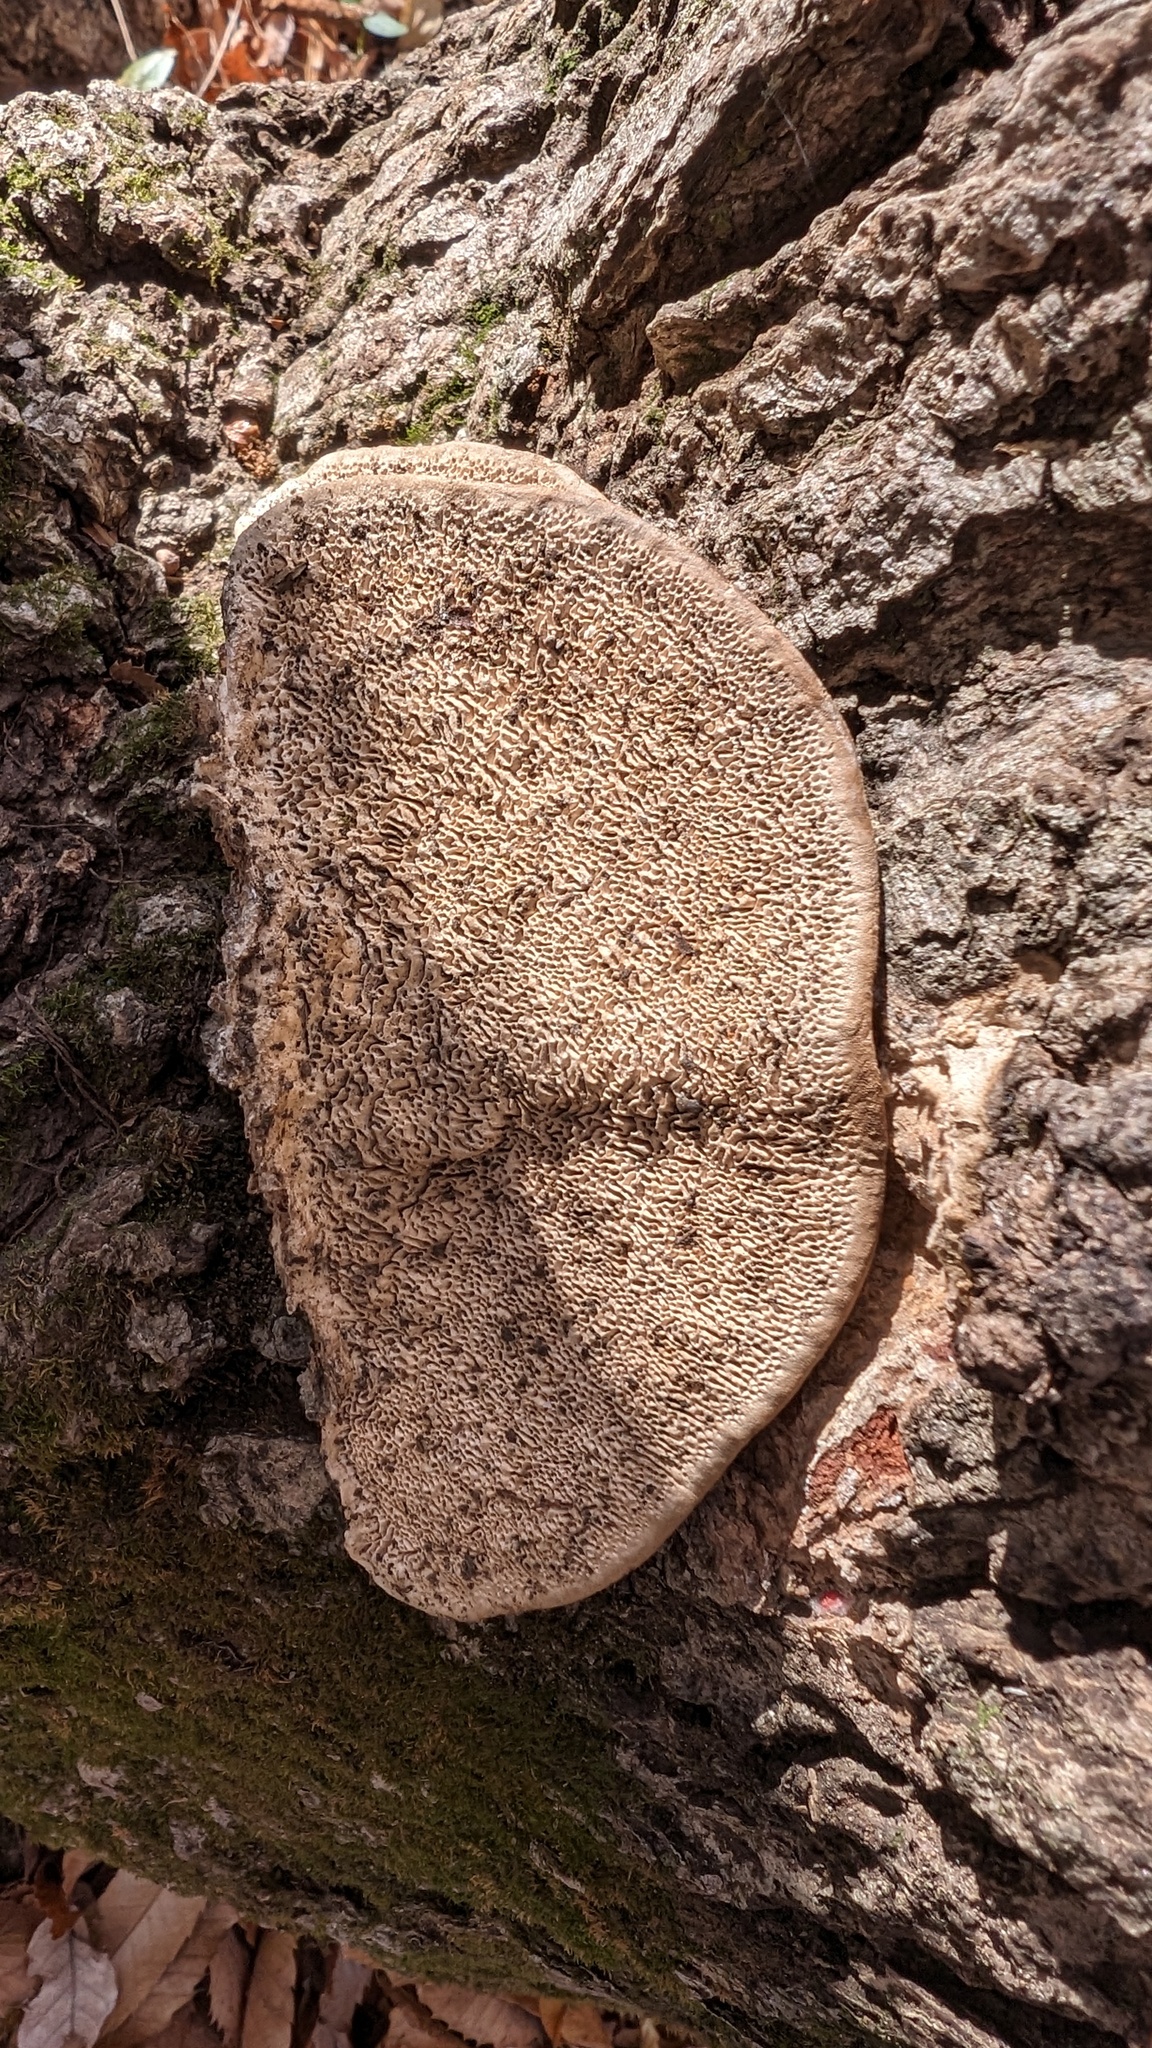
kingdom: Fungi
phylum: Basidiomycota
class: Agaricomycetes
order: Polyporales
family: Fomitopsidaceae
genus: Fomitopsis
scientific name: Fomitopsis
